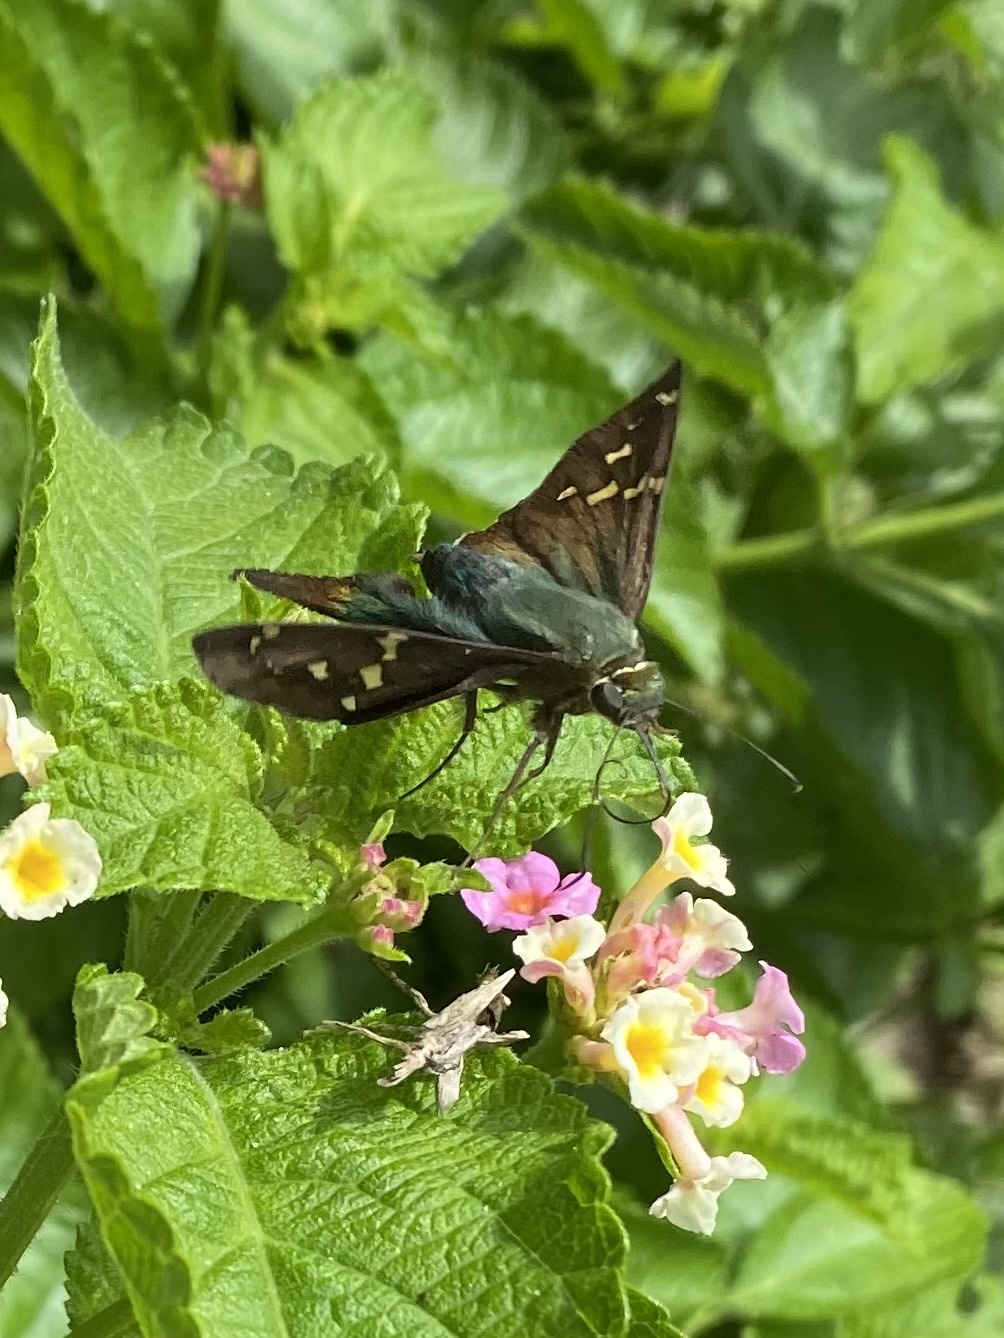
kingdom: Animalia
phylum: Arthropoda
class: Insecta
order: Lepidoptera
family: Hesperiidae
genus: Urbanus
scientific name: Urbanus proteus
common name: Long-tailed skipper
